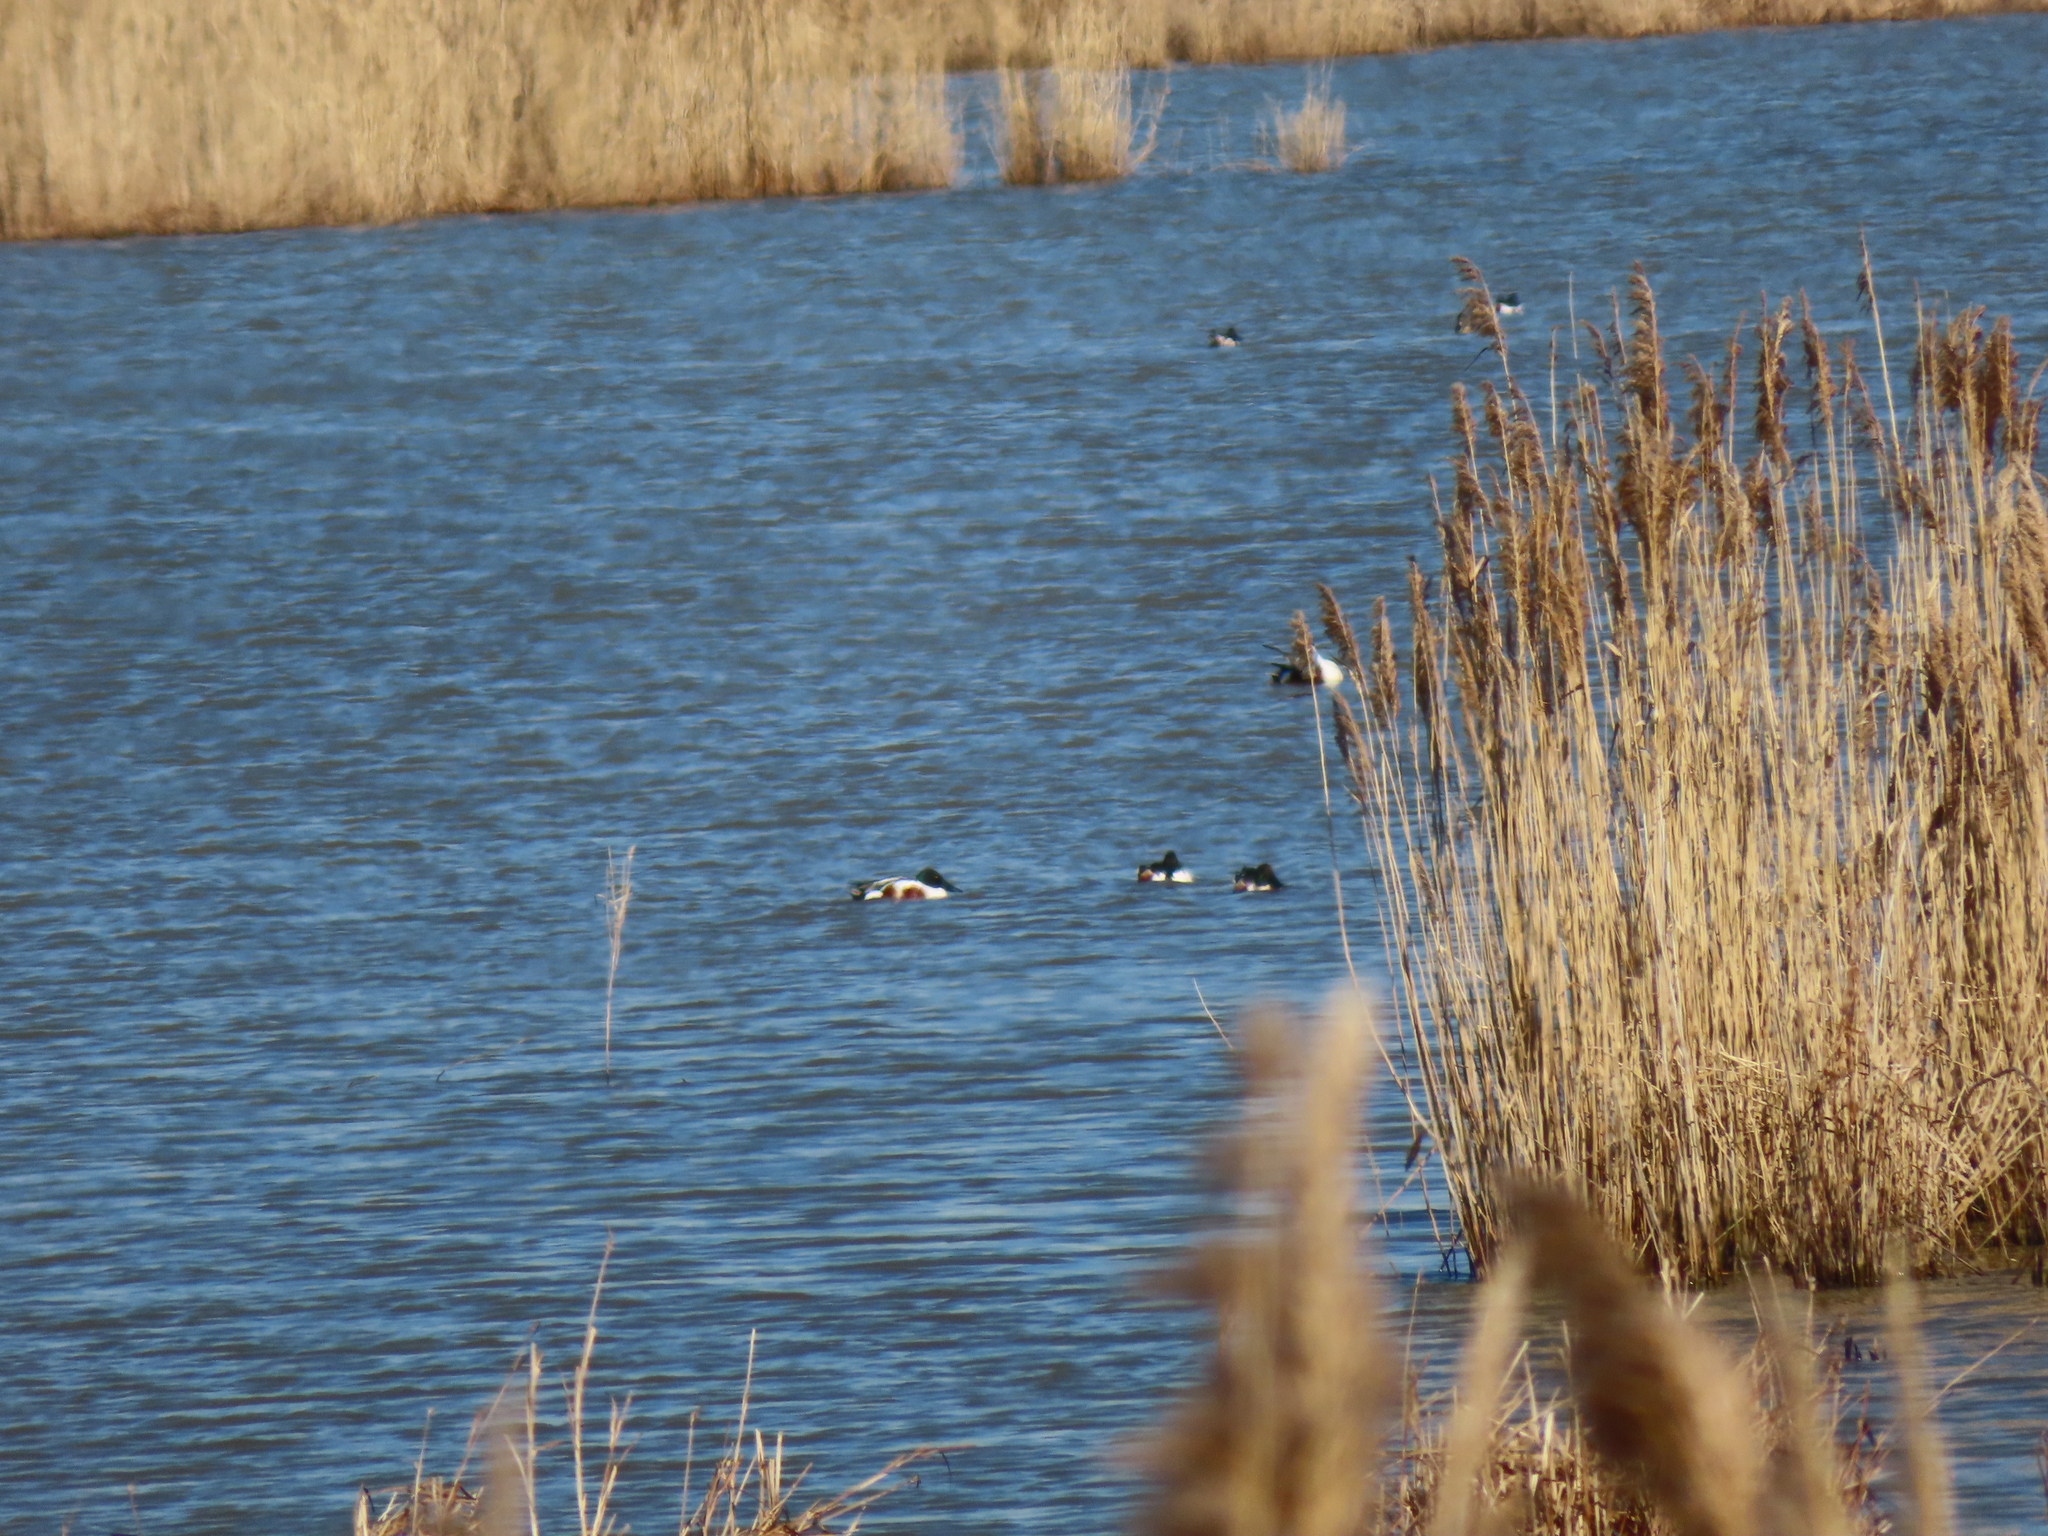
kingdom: Animalia
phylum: Chordata
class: Aves
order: Anseriformes
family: Anatidae
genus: Spatula
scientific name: Spatula clypeata
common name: Northern shoveler
